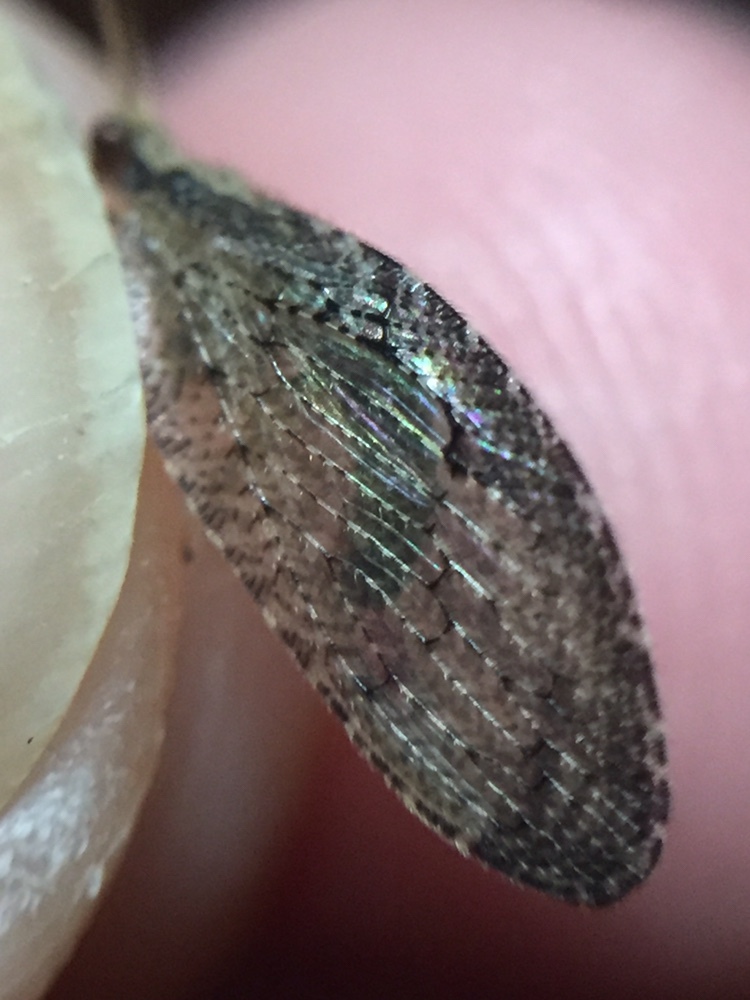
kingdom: Animalia
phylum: Arthropoda
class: Insecta
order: Neuroptera
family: Hemerobiidae
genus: Wesmaelius
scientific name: Wesmaelius subnebulosus
